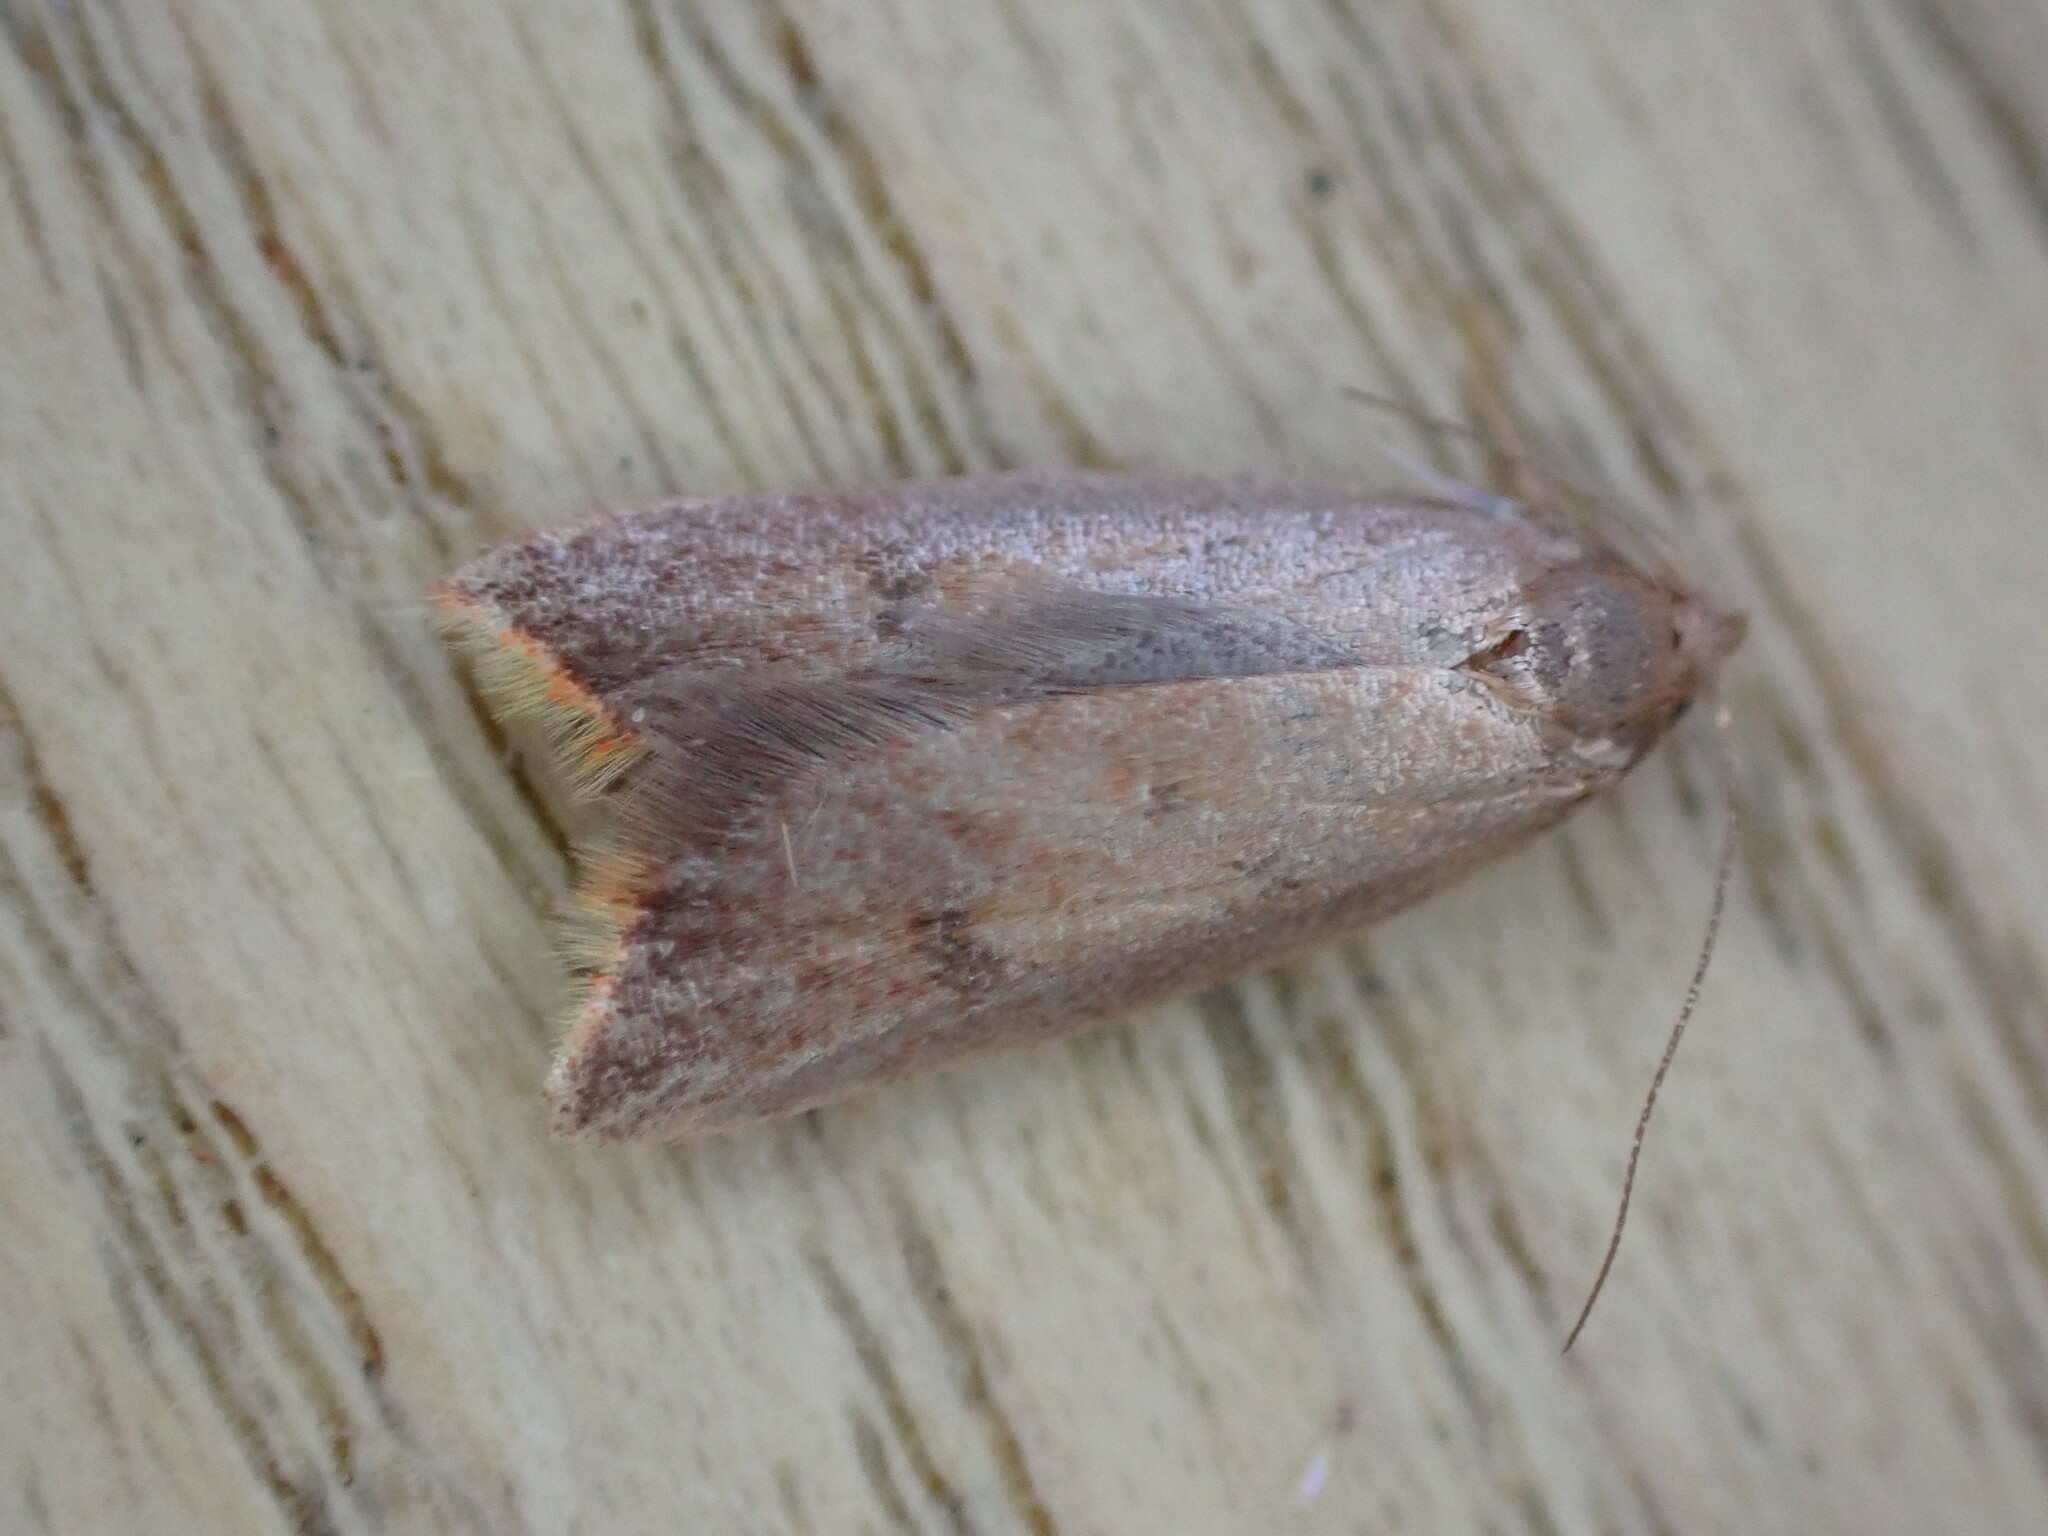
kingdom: Animalia
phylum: Arthropoda
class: Insecta
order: Lepidoptera
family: Oecophoridae
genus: Tachystola
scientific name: Tachystola acroxantha
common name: Ruddy streak
